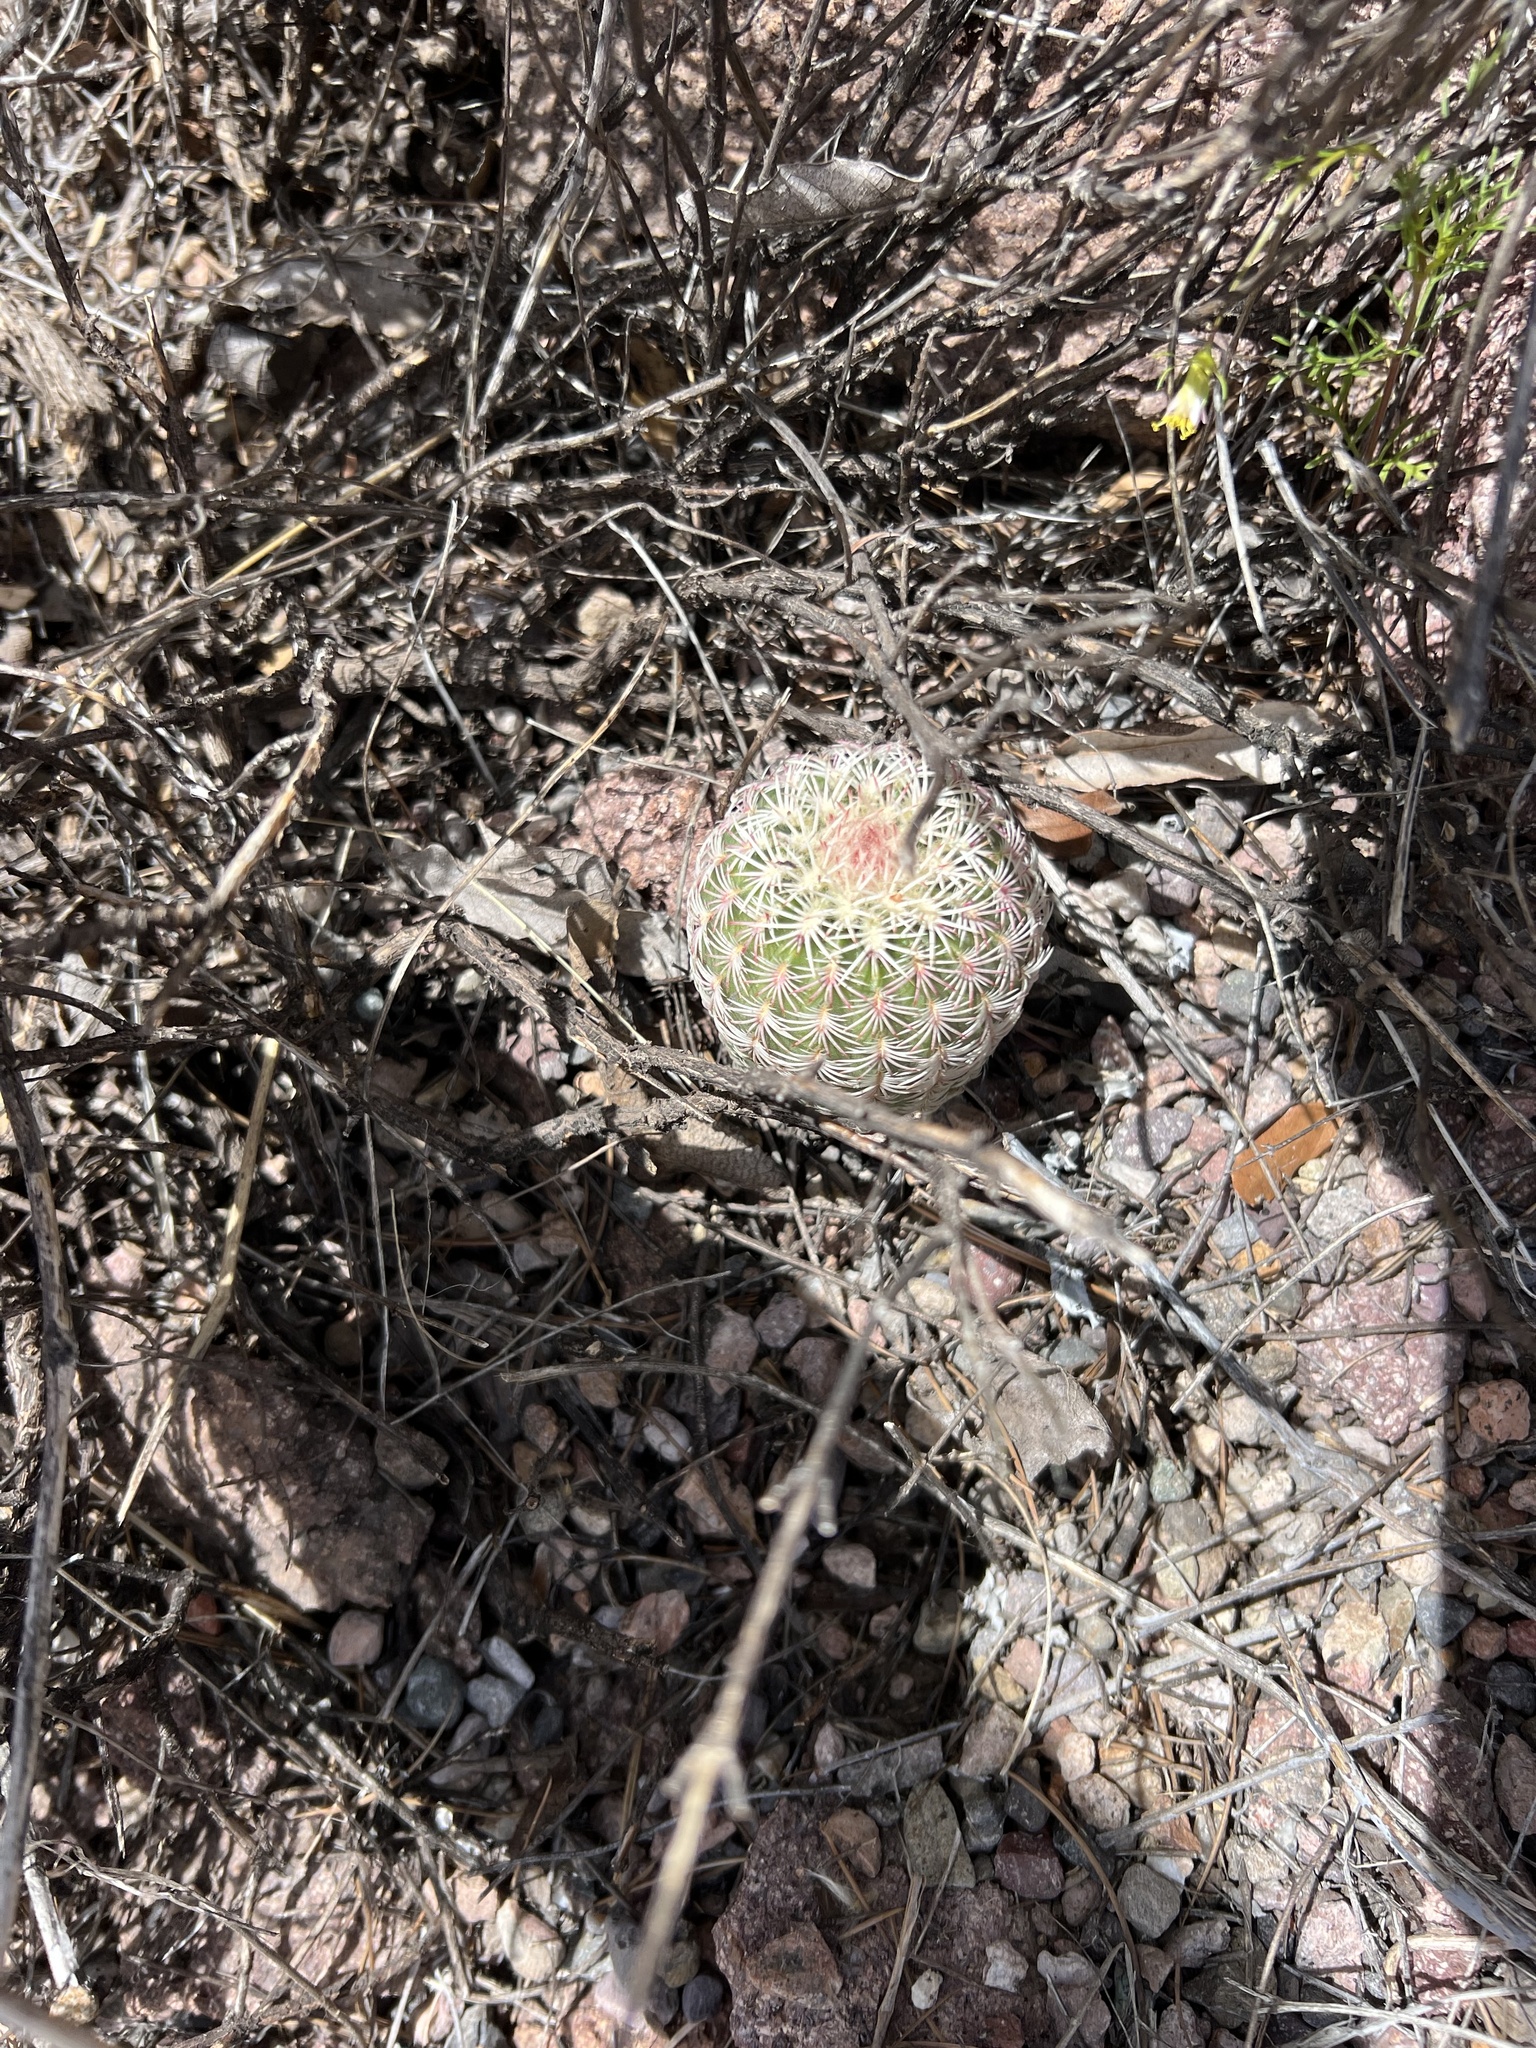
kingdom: Plantae
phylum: Tracheophyta
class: Magnoliopsida
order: Caryophyllales
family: Cactaceae
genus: Echinocereus
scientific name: Echinocereus rigidissimus
